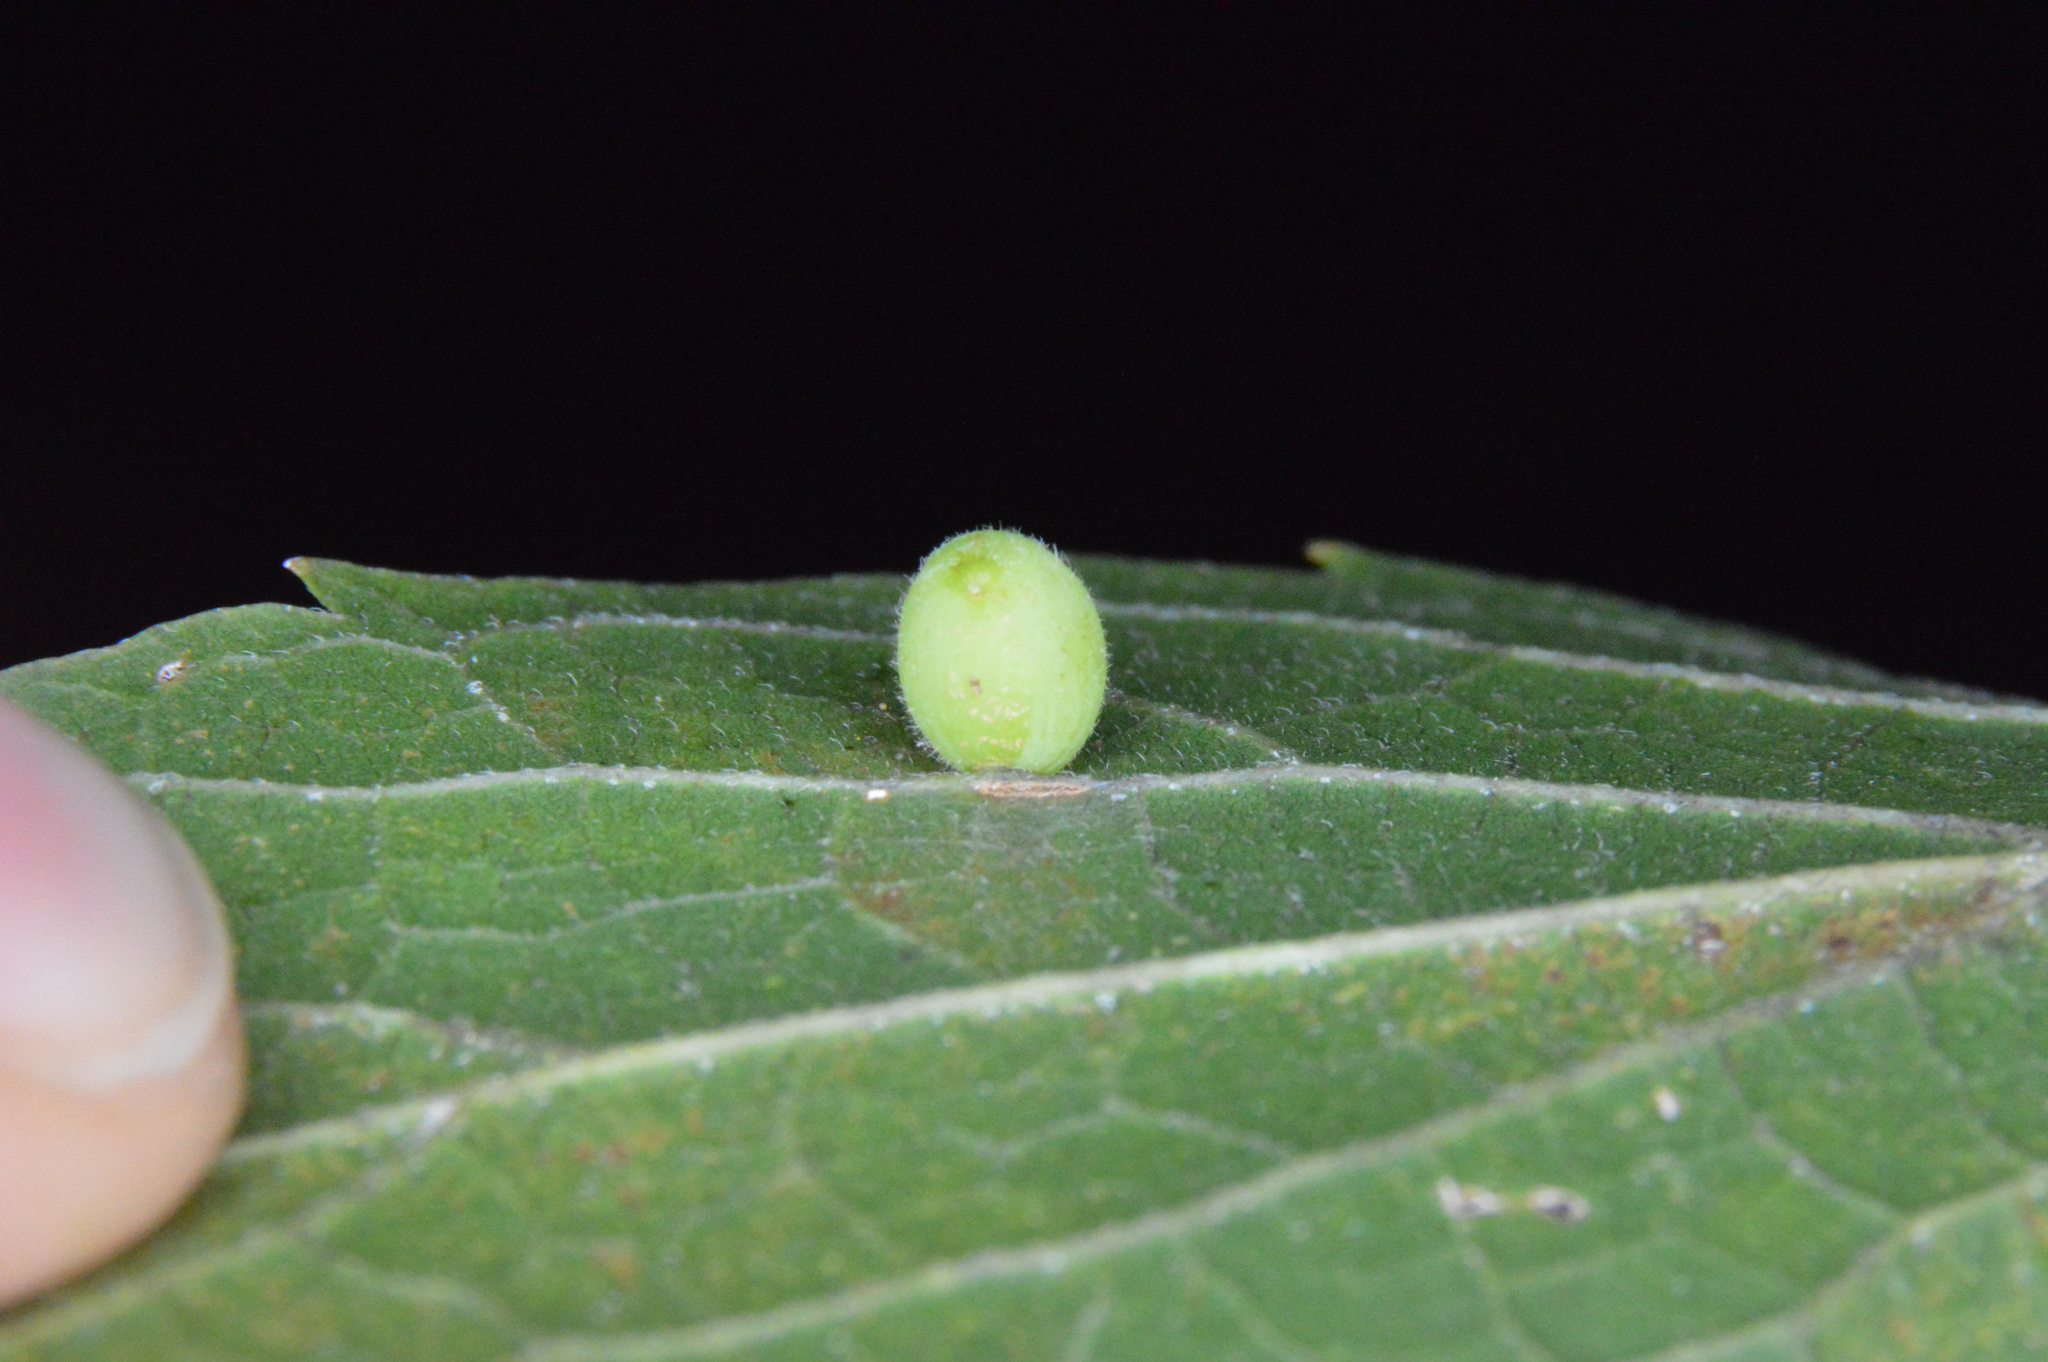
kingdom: Animalia
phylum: Arthropoda
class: Insecta
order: Diptera
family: Cecidomyiidae
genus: Celticecis
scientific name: Celticecis globosa
